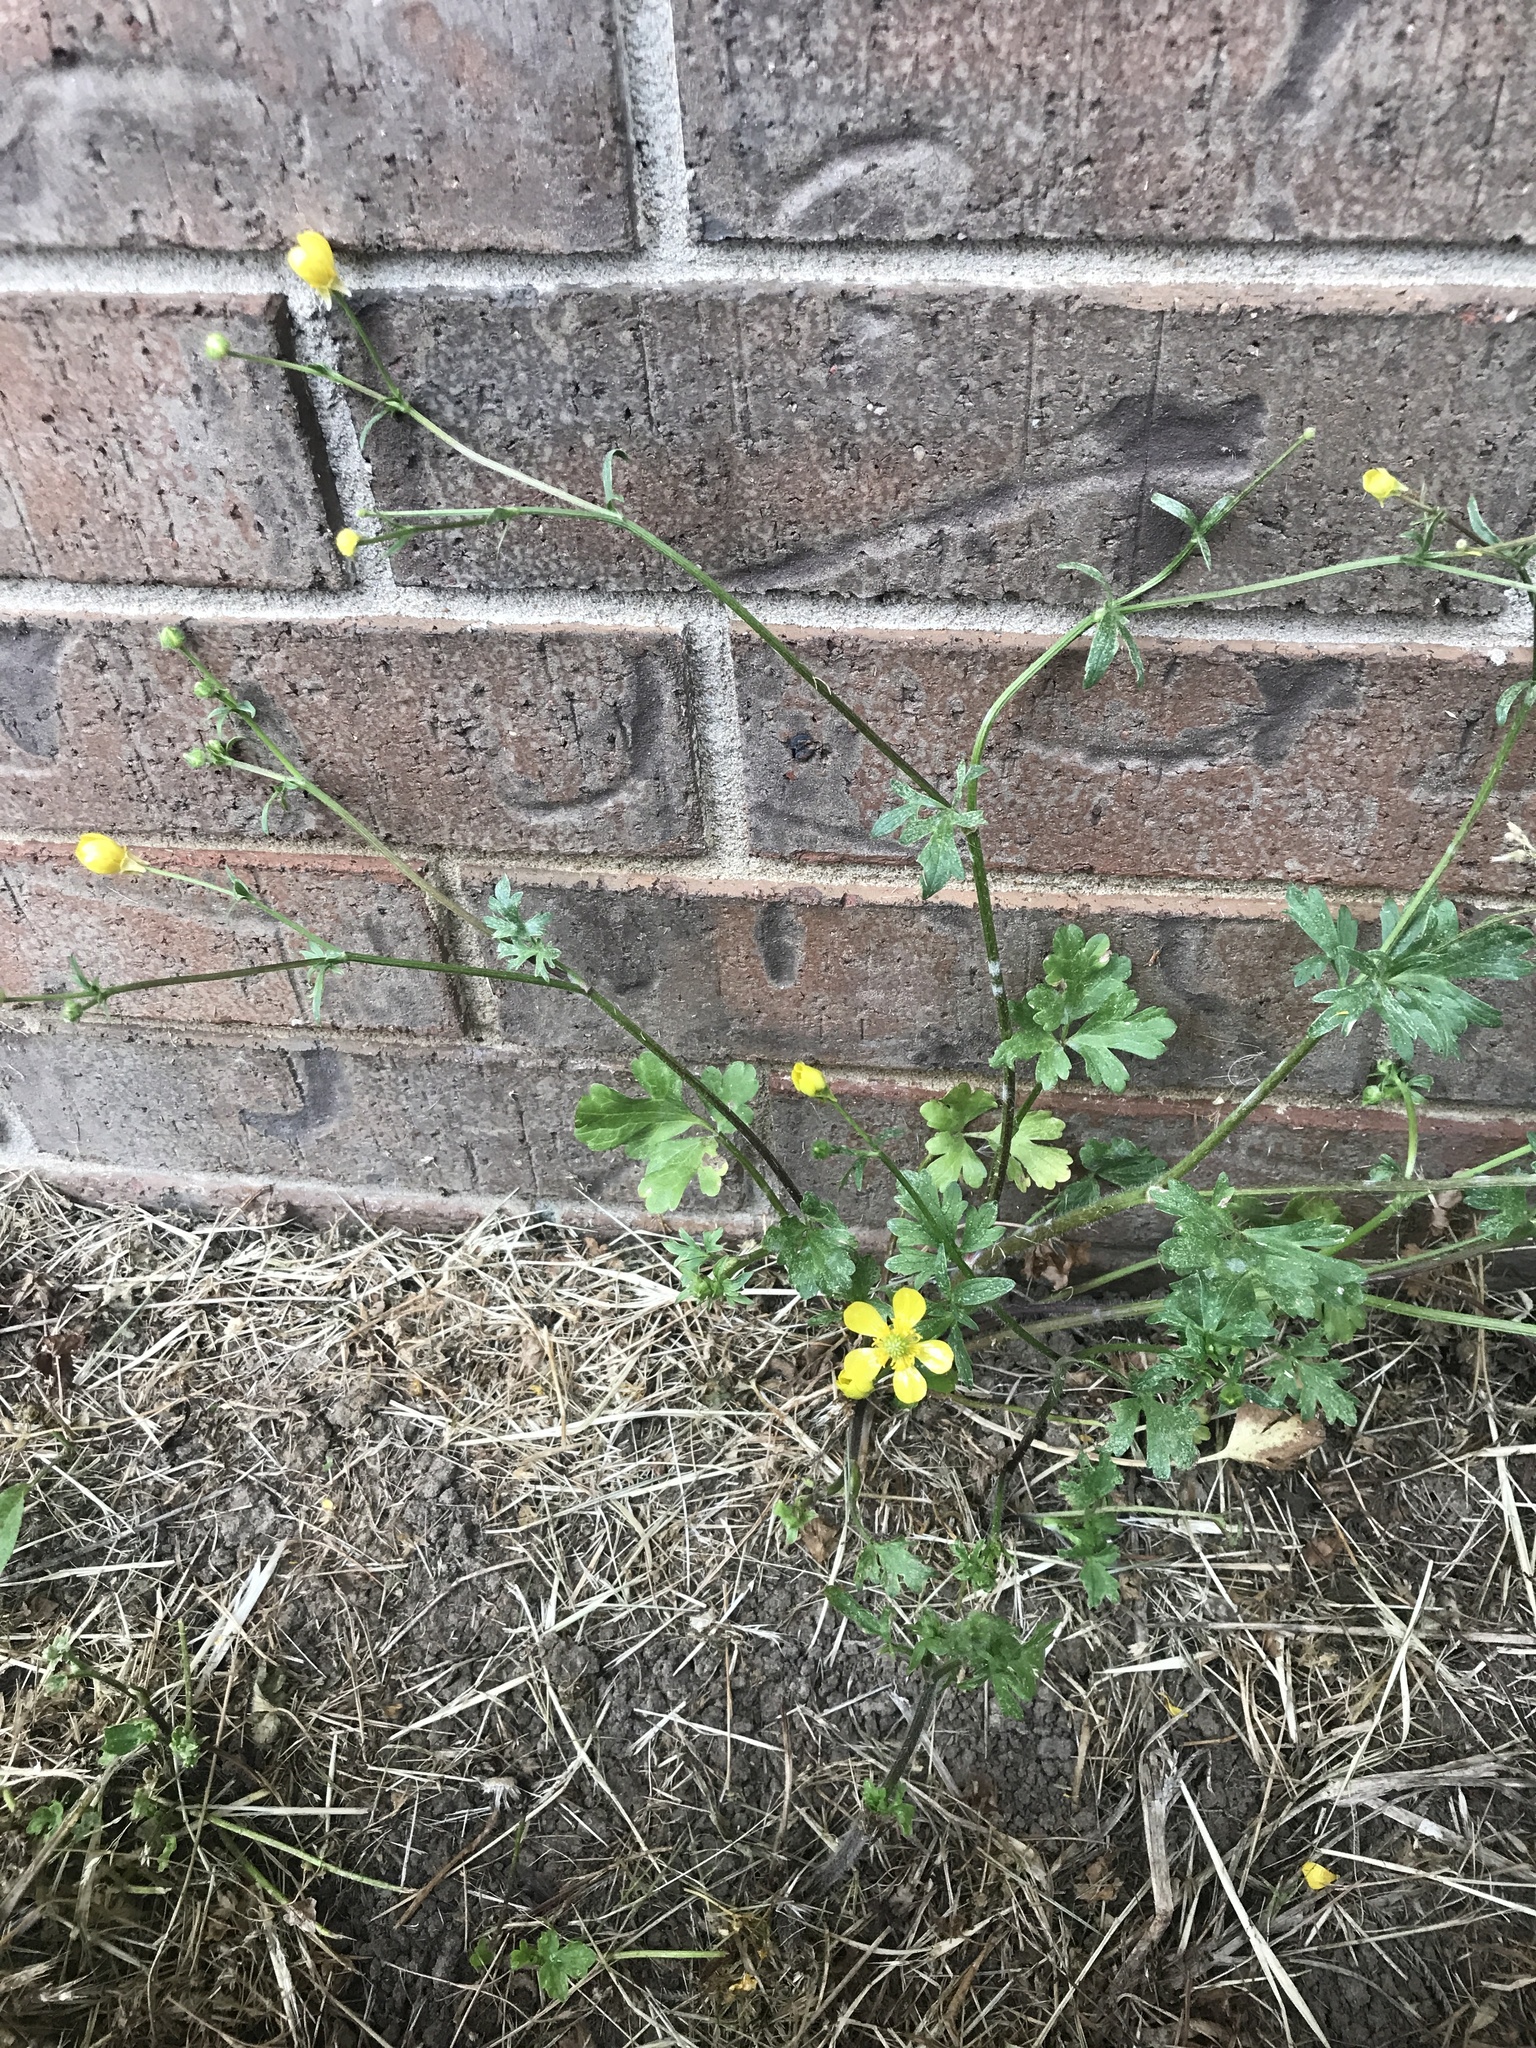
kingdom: Plantae
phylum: Tracheophyta
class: Magnoliopsida
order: Ranunculales
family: Ranunculaceae
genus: Ranunculus
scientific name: Ranunculus hispidus
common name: Bristly buttercup
